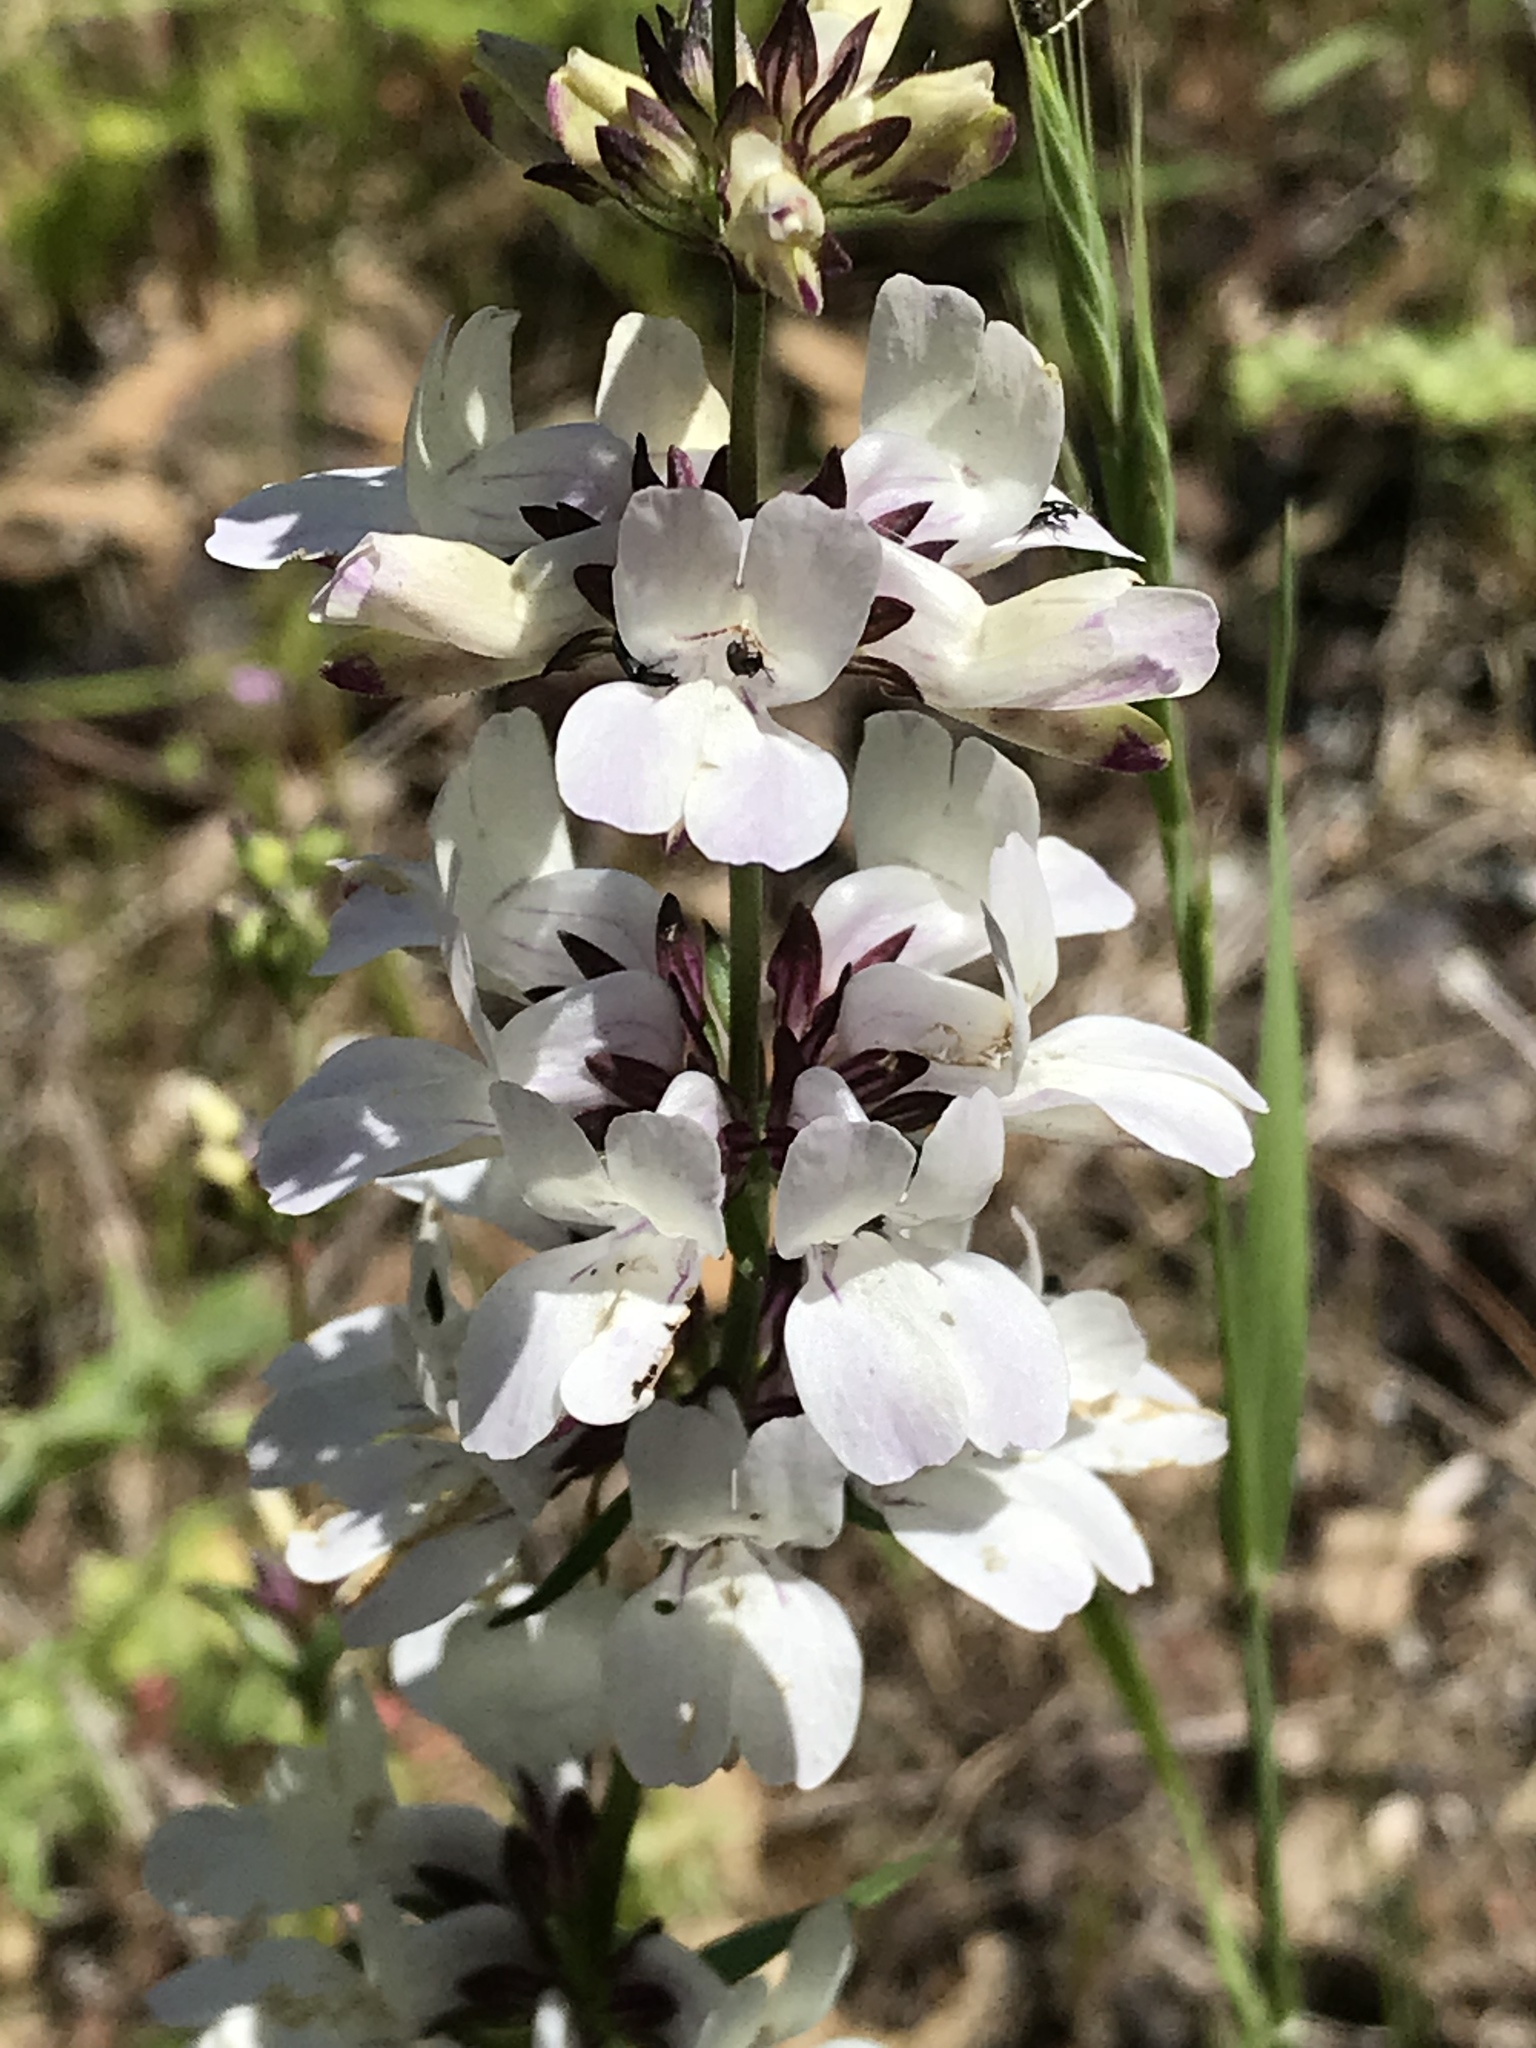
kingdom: Plantae
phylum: Tracheophyta
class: Magnoliopsida
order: Lamiales
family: Plantaginaceae
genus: Collinsia
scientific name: Collinsia heterophylla
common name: Chinese-houses
